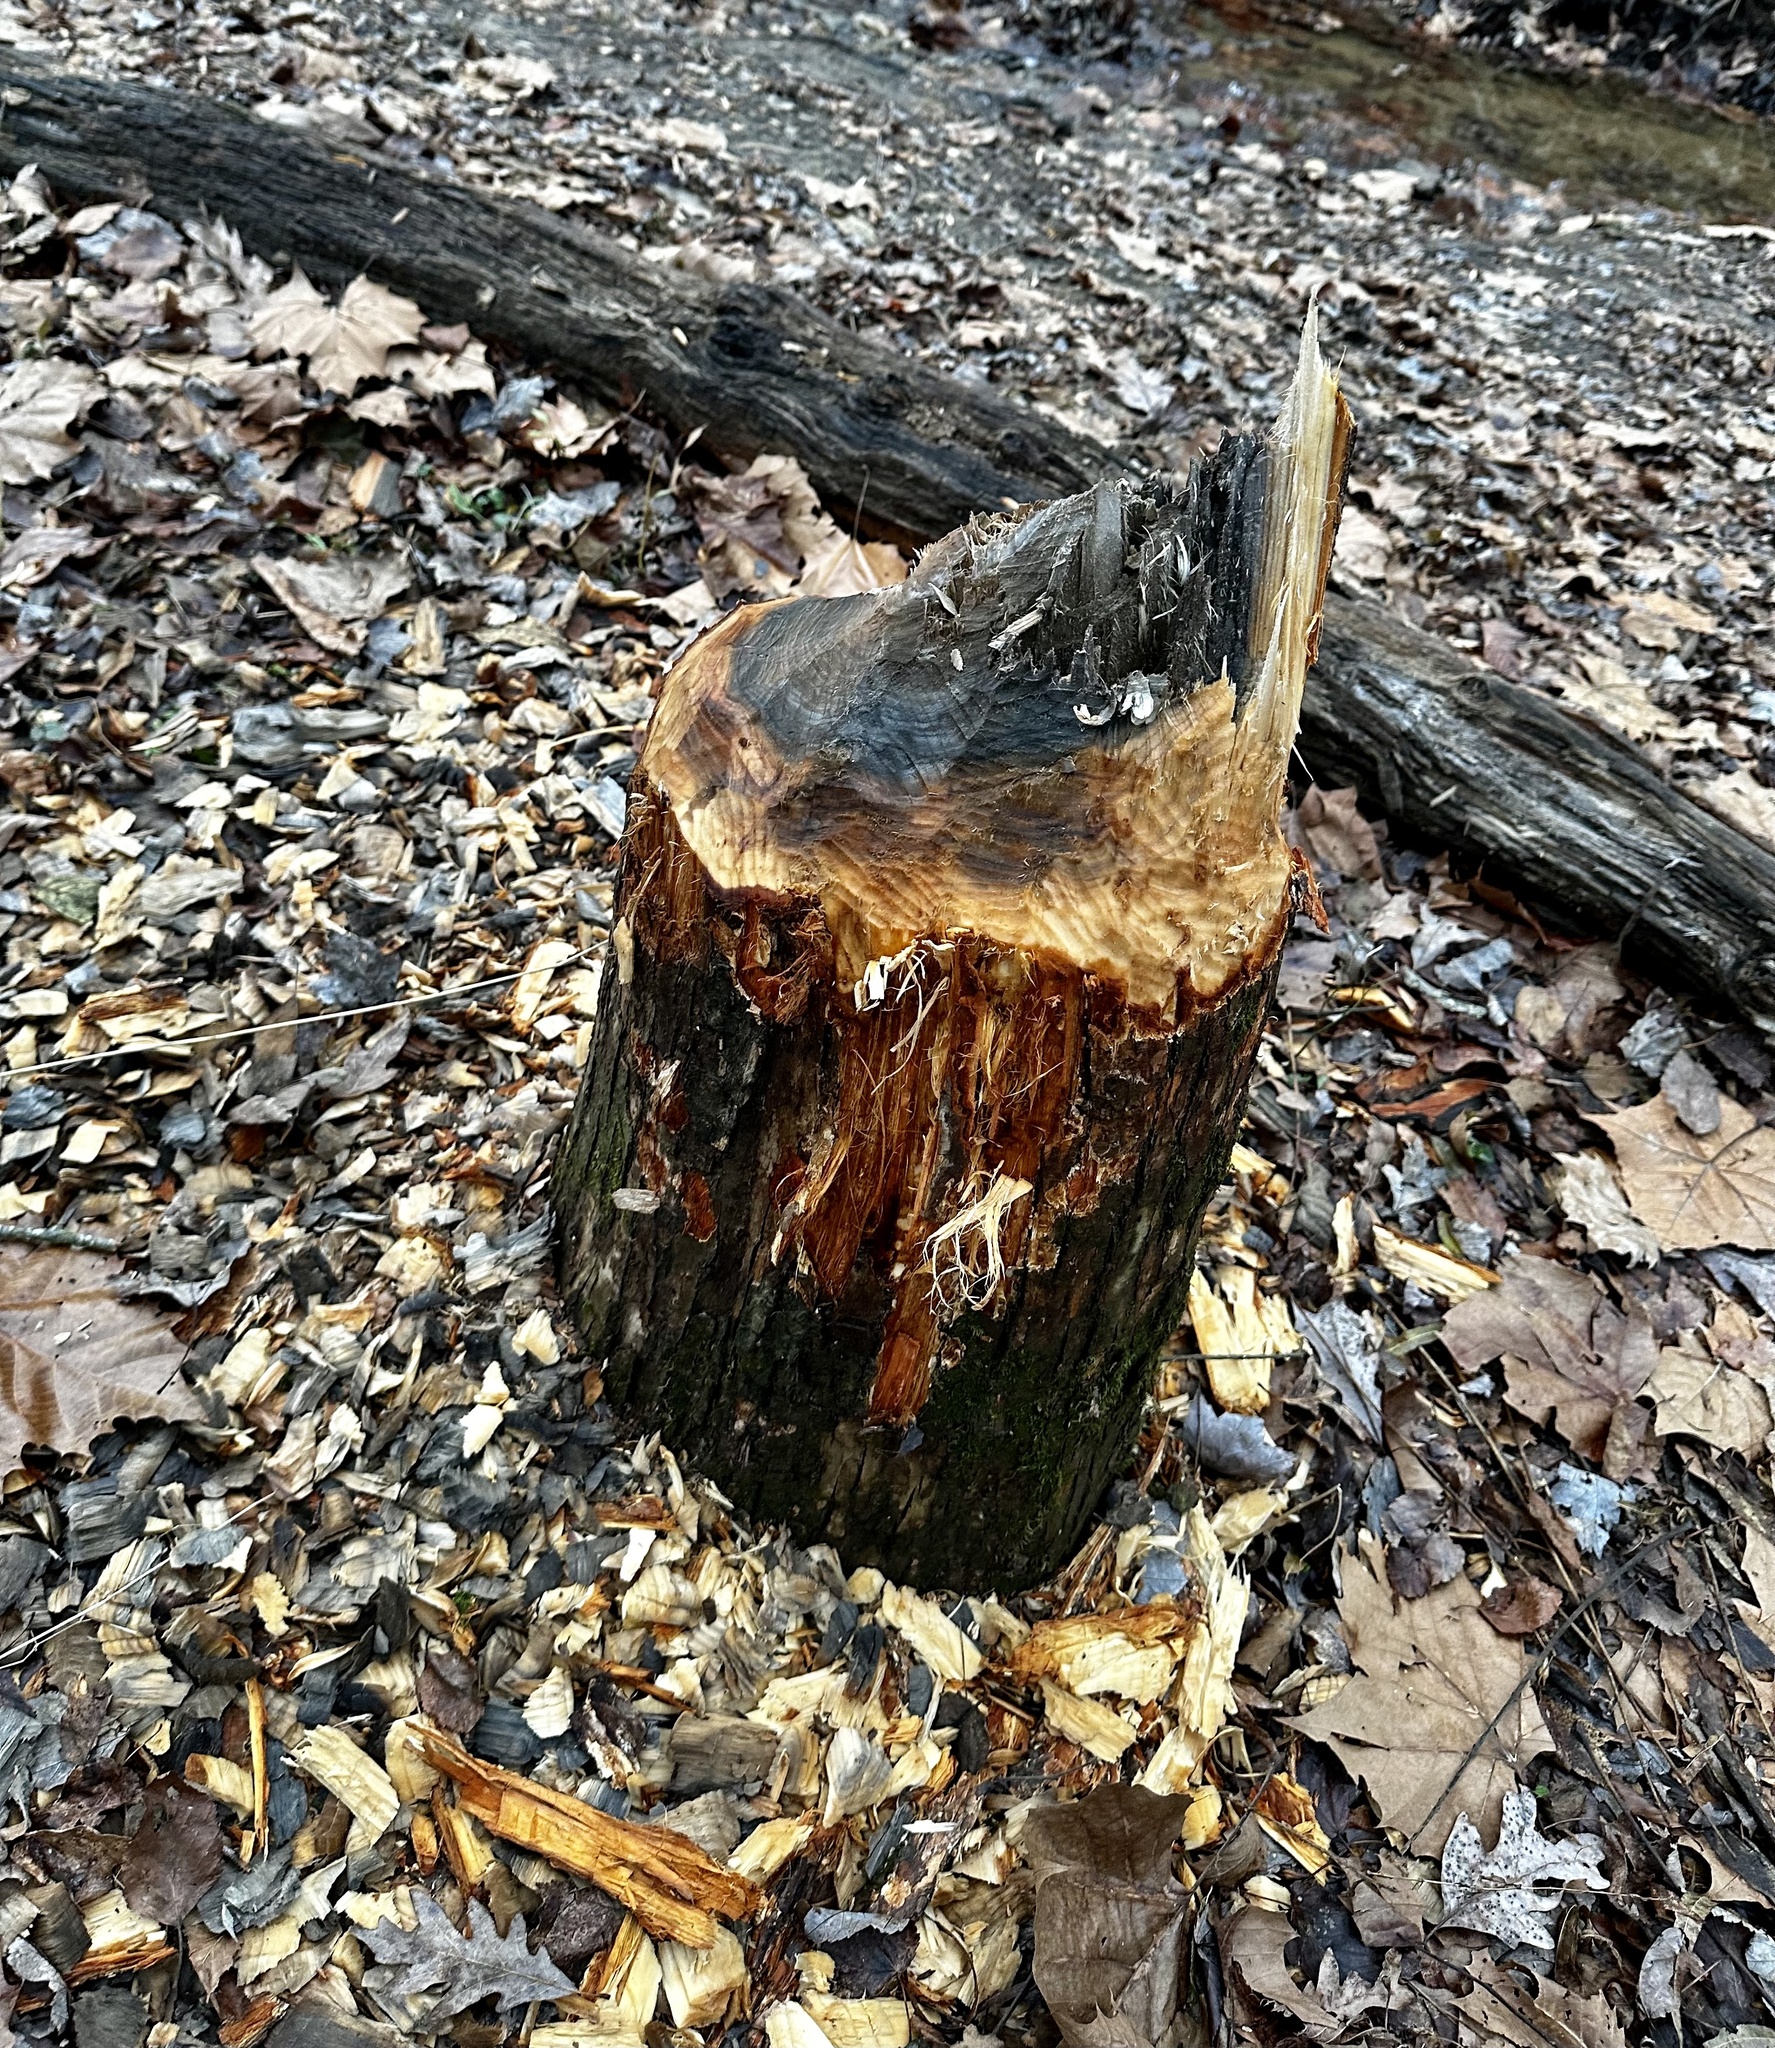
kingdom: Animalia
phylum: Chordata
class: Mammalia
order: Rodentia
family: Castoridae
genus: Castor
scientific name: Castor canadensis
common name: American beaver
